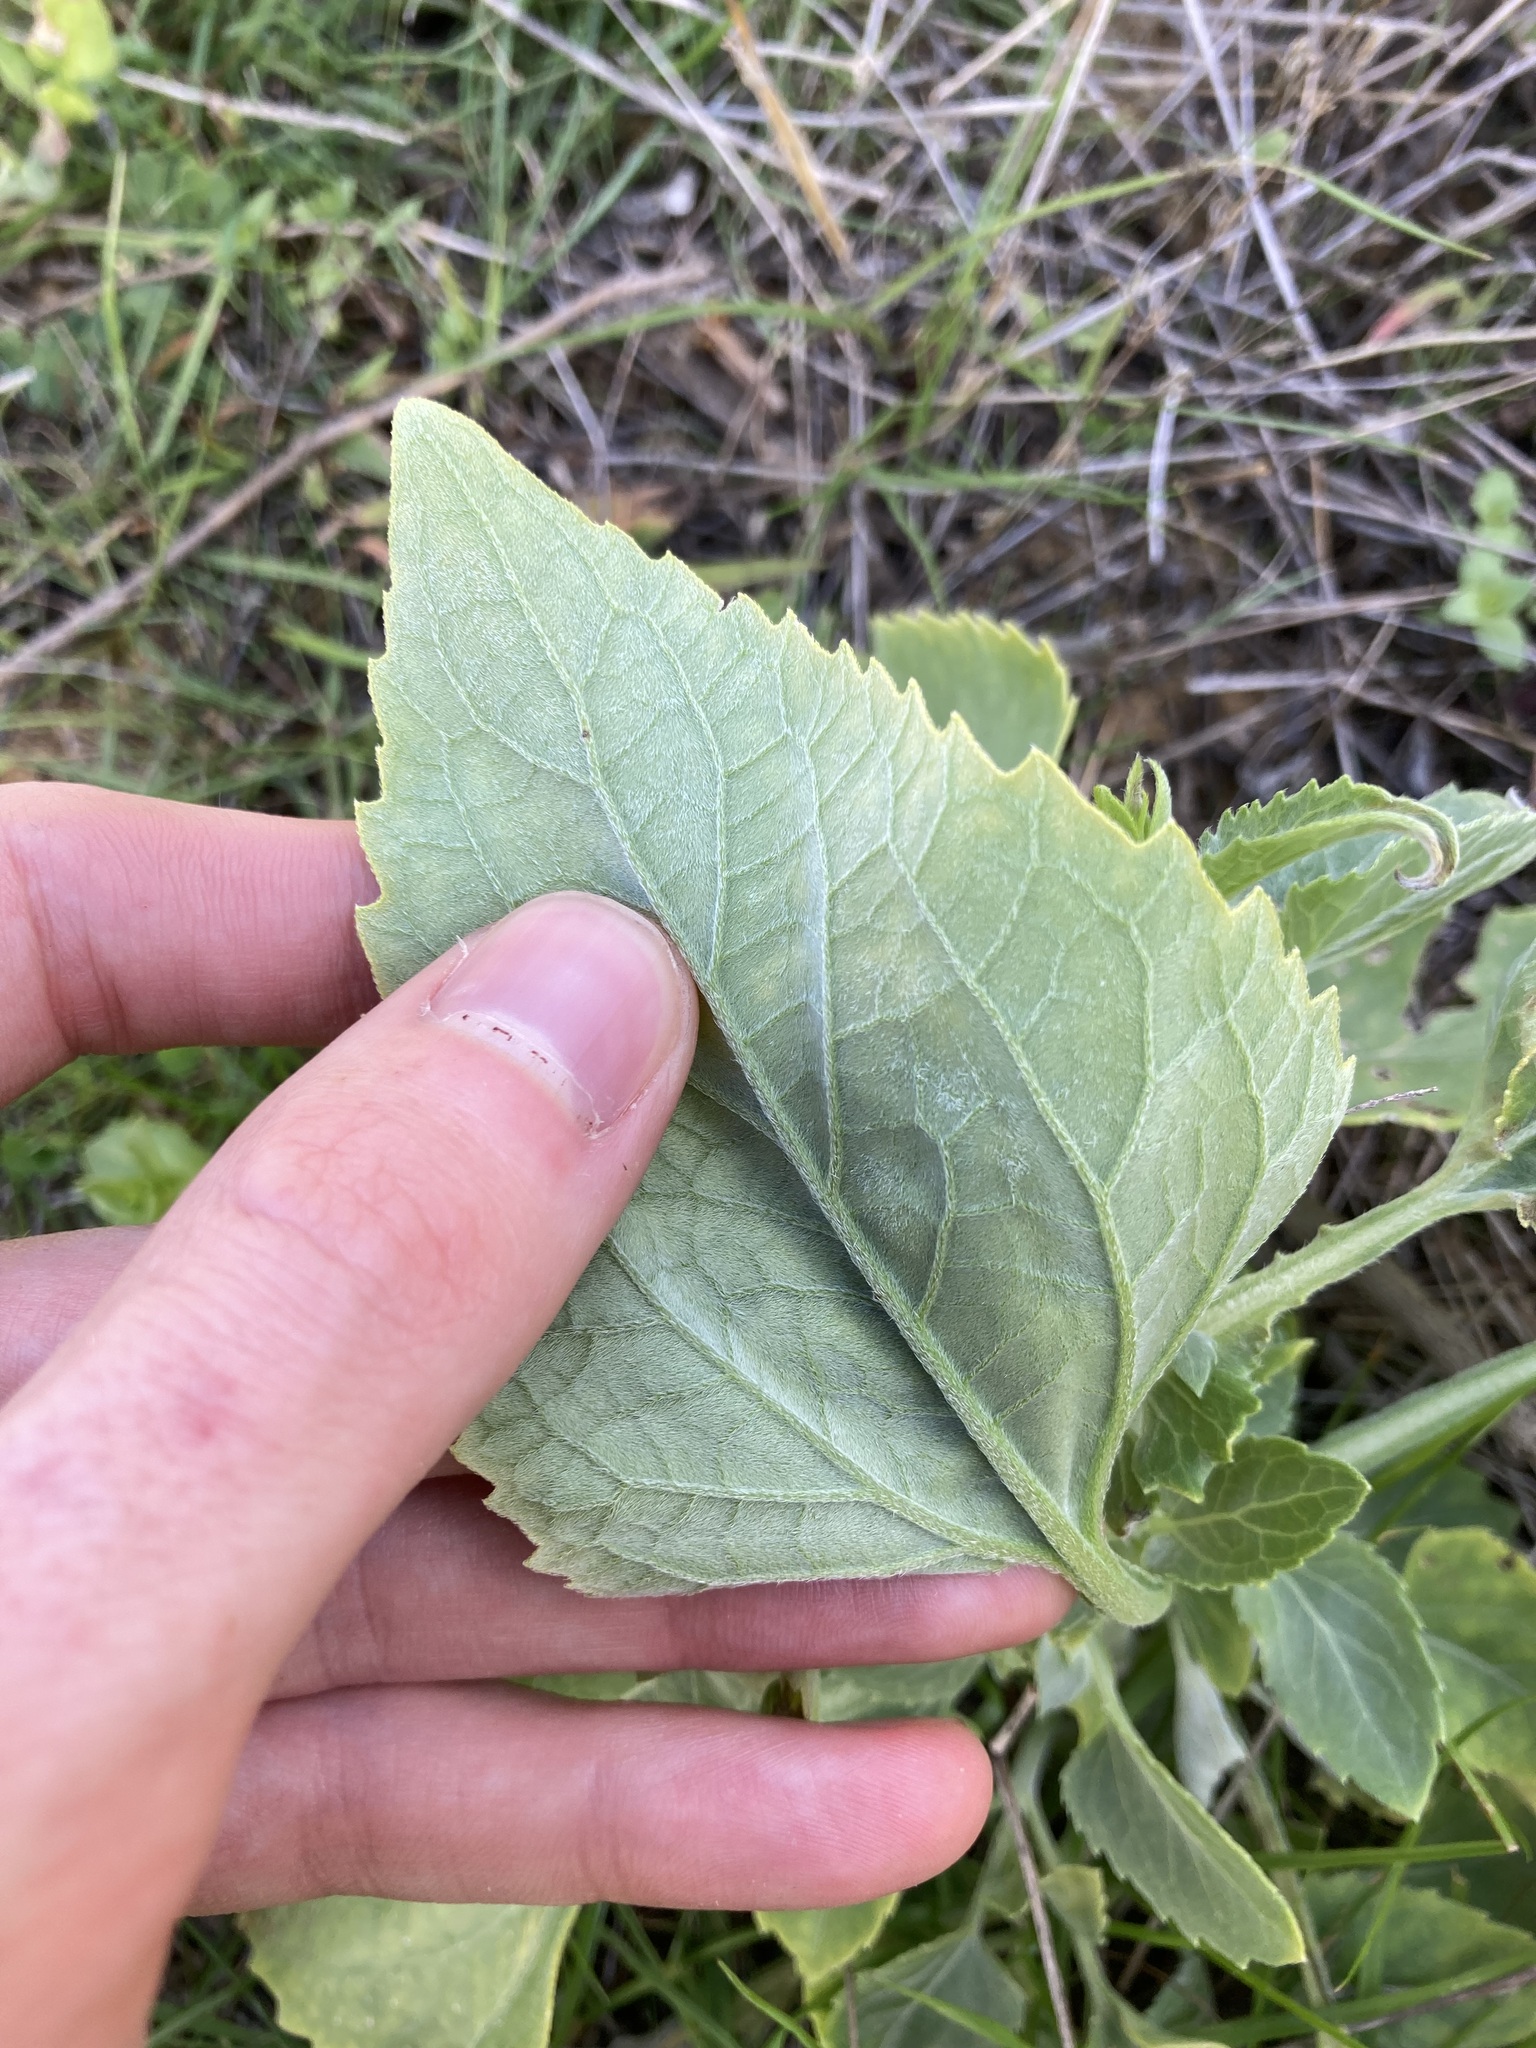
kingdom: Plantae
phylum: Tracheophyta
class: Magnoliopsida
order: Asterales
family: Asteraceae
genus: Verbesina
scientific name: Verbesina encelioides
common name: Golden crownbeard
